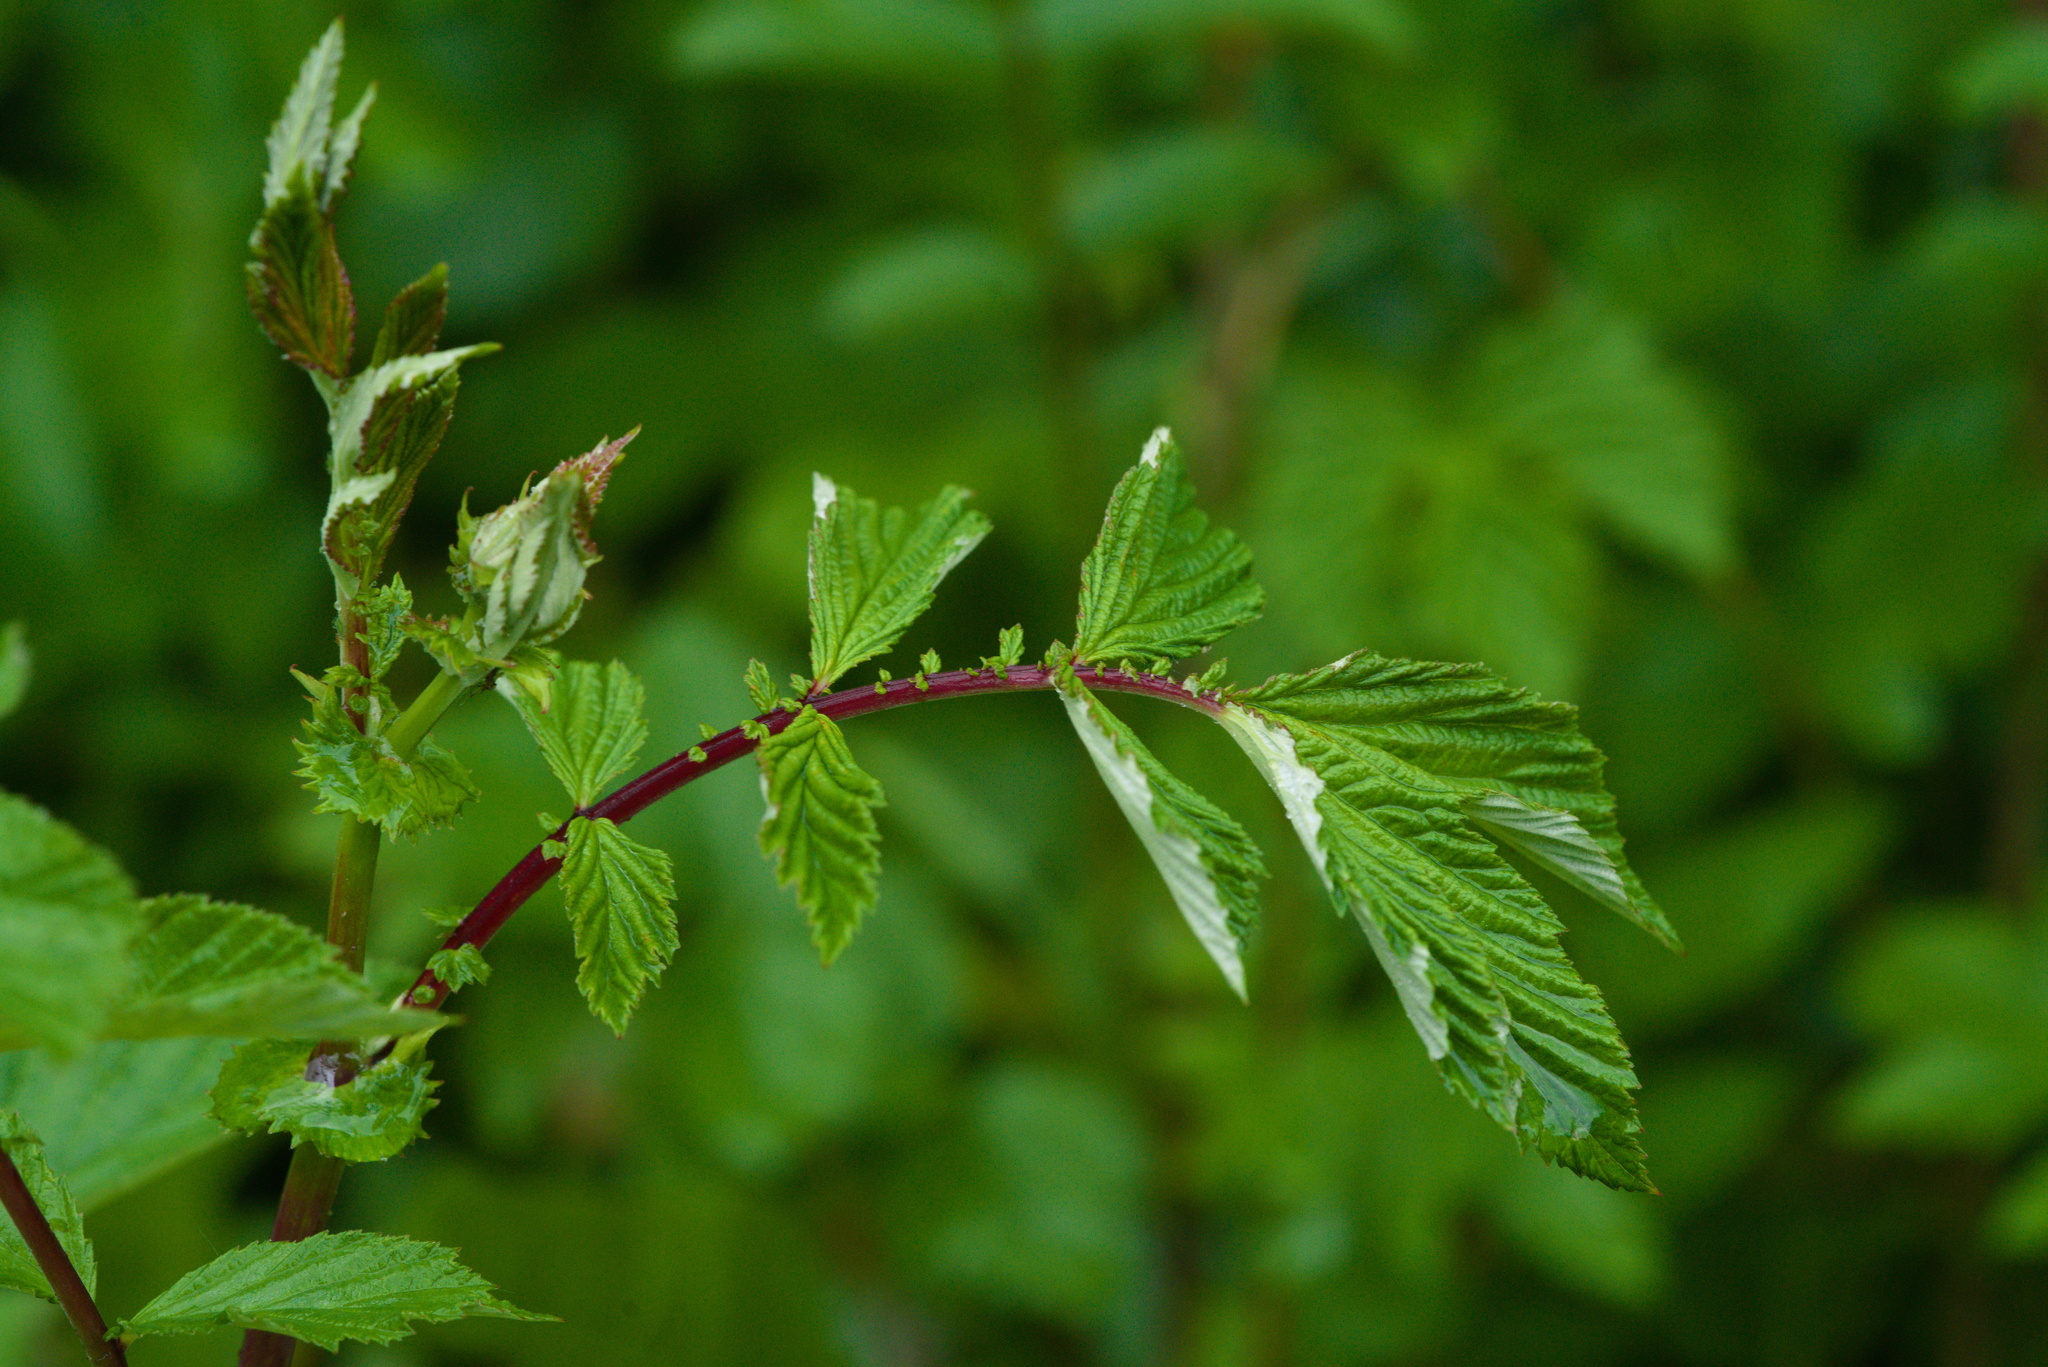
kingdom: Plantae
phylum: Tracheophyta
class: Magnoliopsida
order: Rosales
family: Rosaceae
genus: Filipendula
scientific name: Filipendula ulmaria
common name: Meadowsweet
